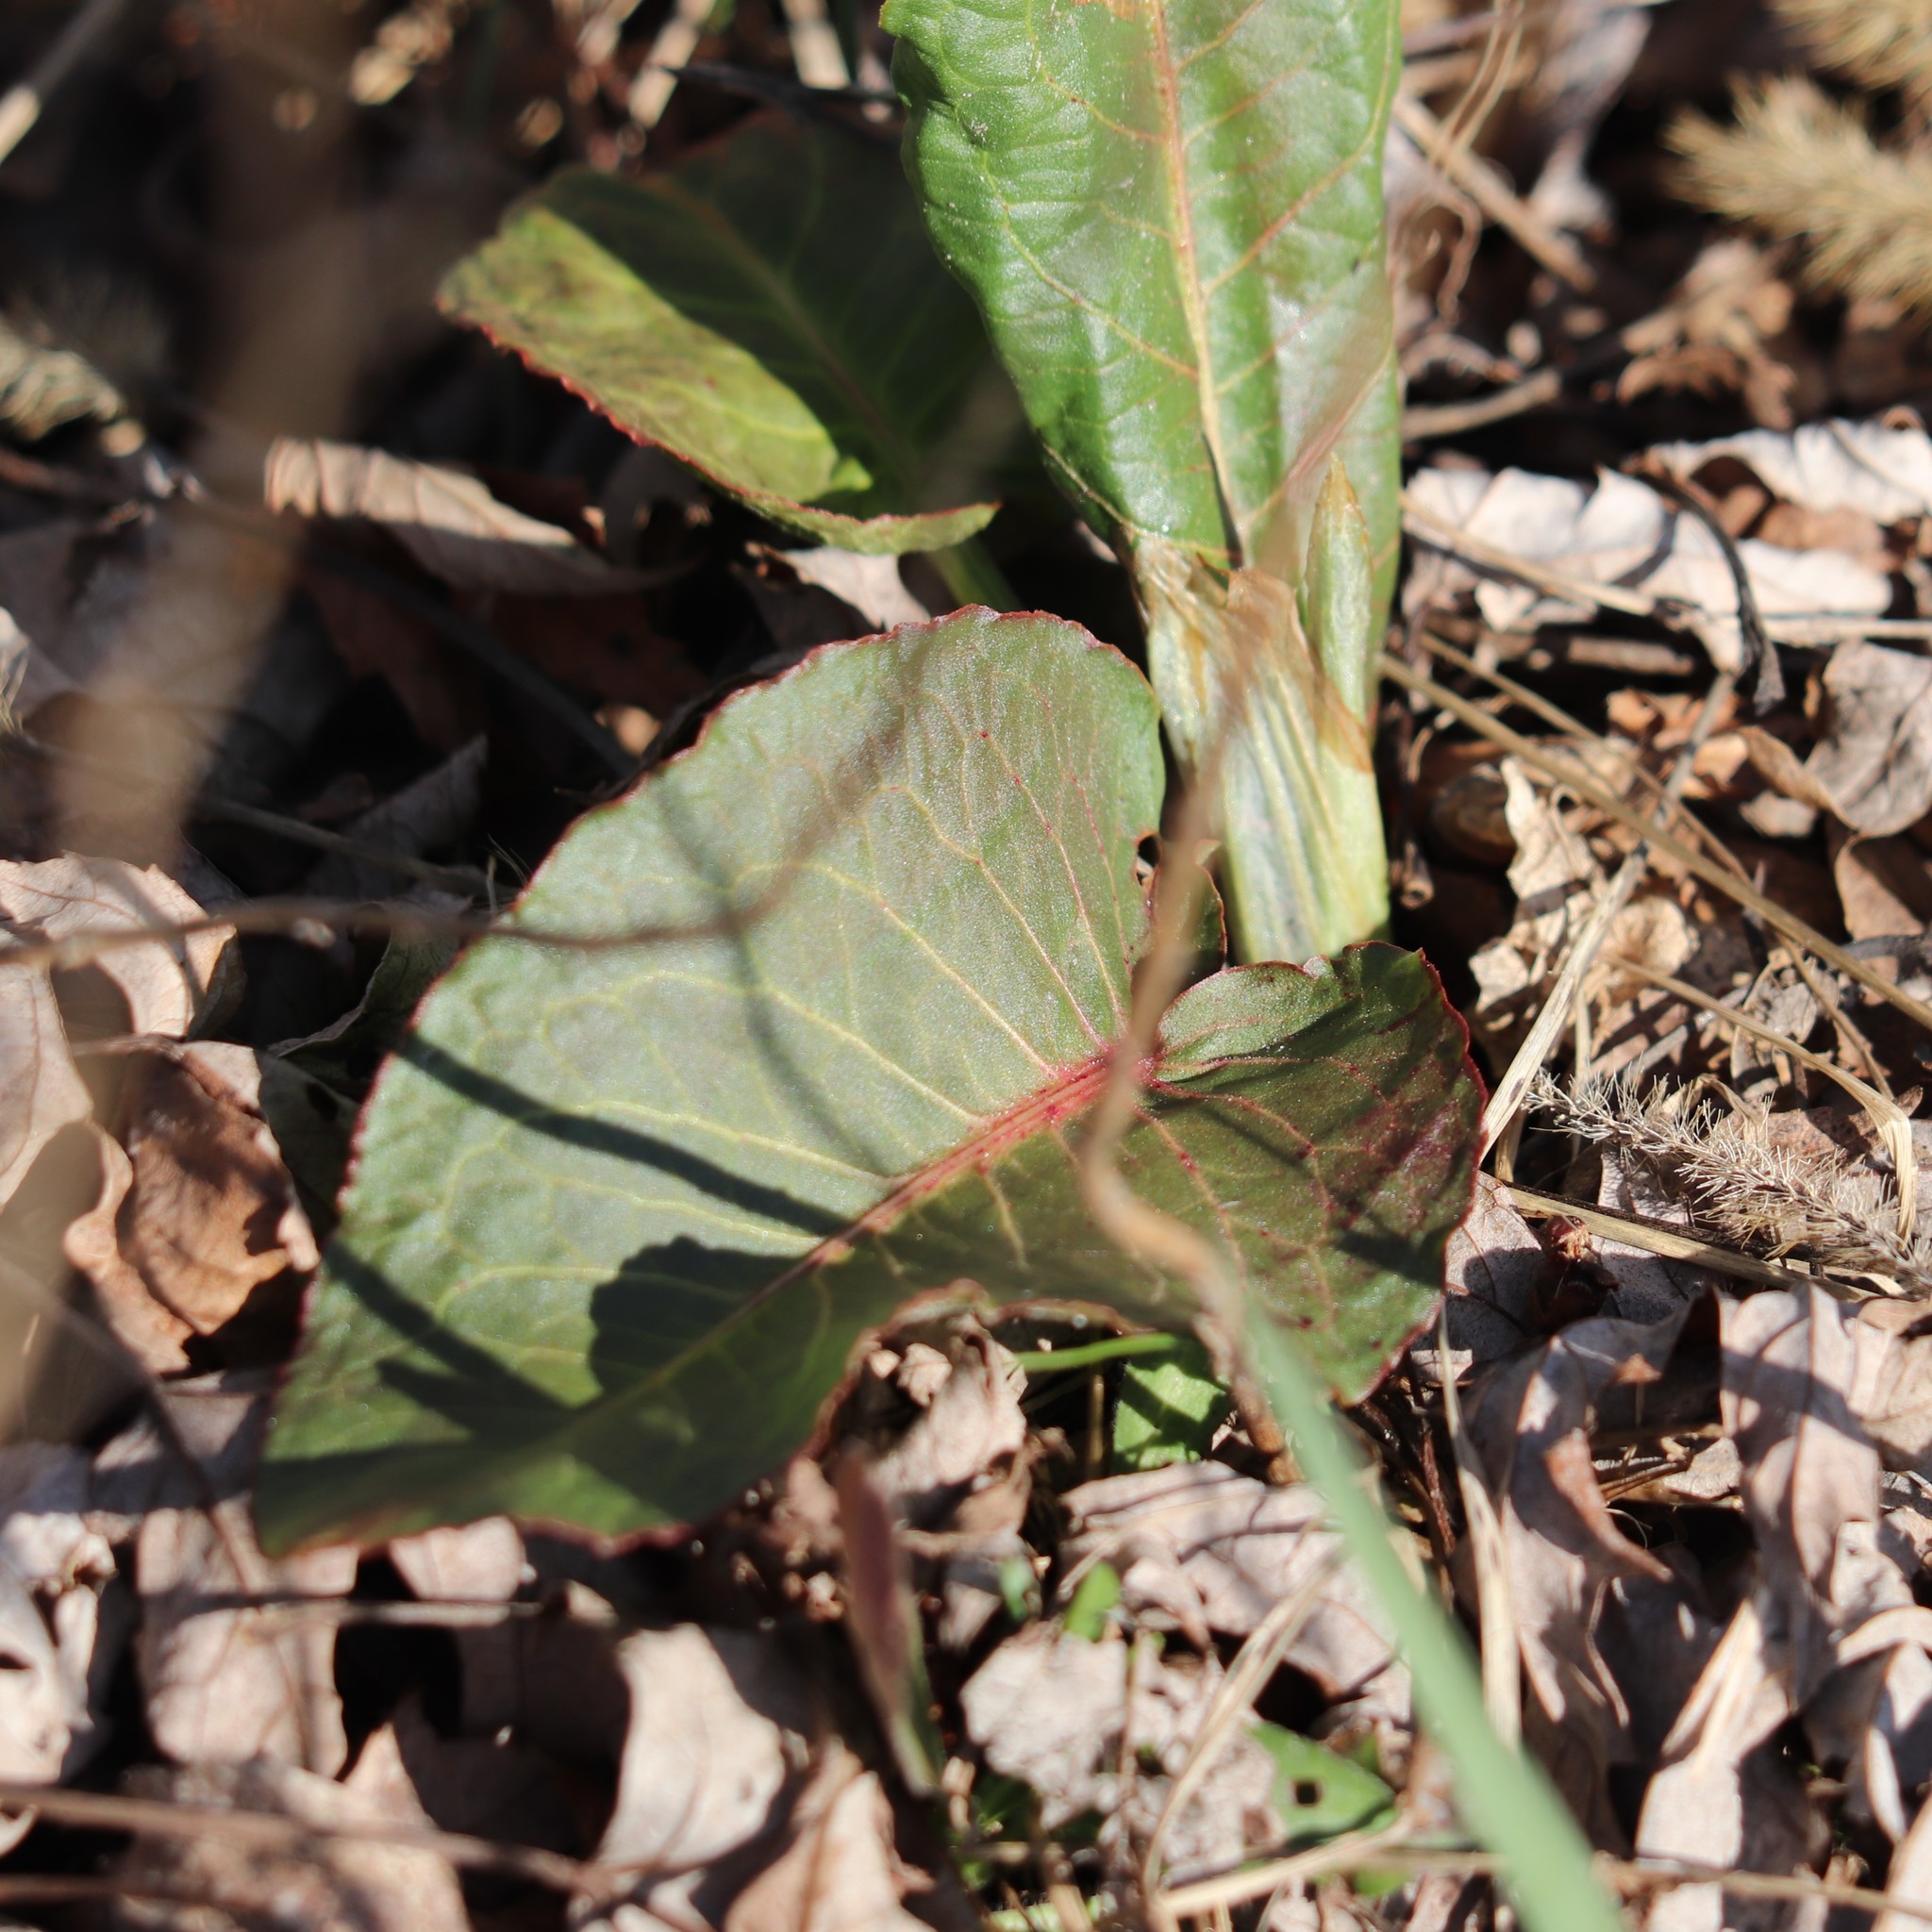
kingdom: Plantae
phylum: Tracheophyta
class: Magnoliopsida
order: Caryophyllales
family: Polygonaceae
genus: Rumex
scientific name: Rumex obtusifolius
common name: Bitter dock
